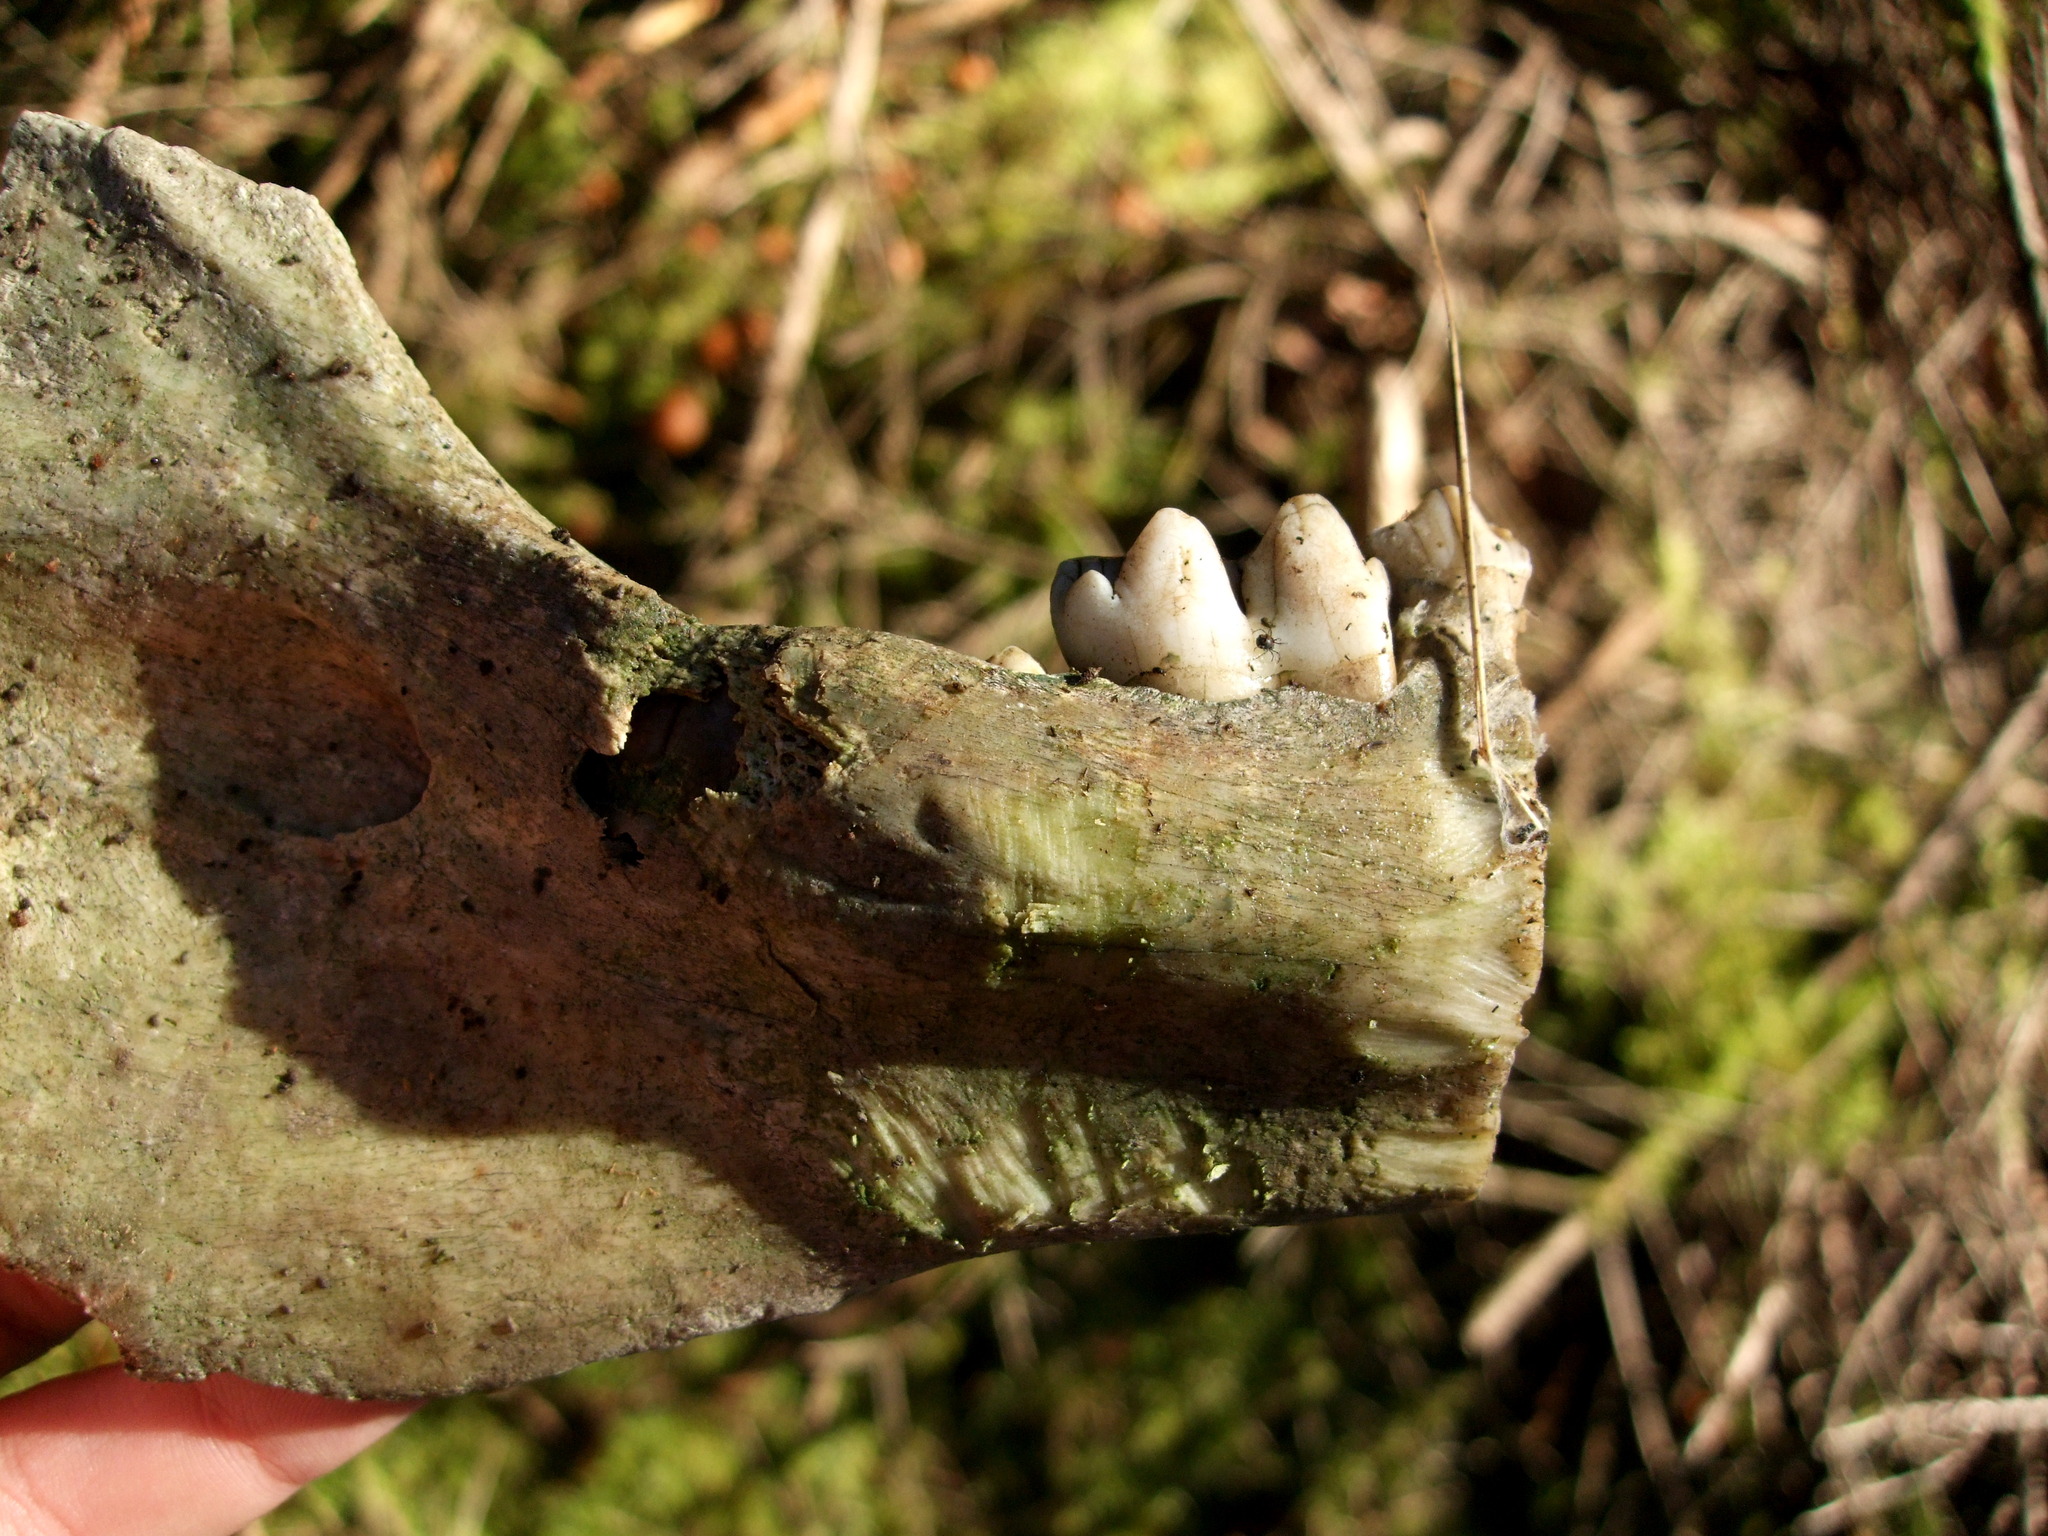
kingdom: Animalia
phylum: Chordata
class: Mammalia
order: Artiodactyla
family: Suidae
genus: Sus
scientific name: Sus scrofa
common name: Wild boar
